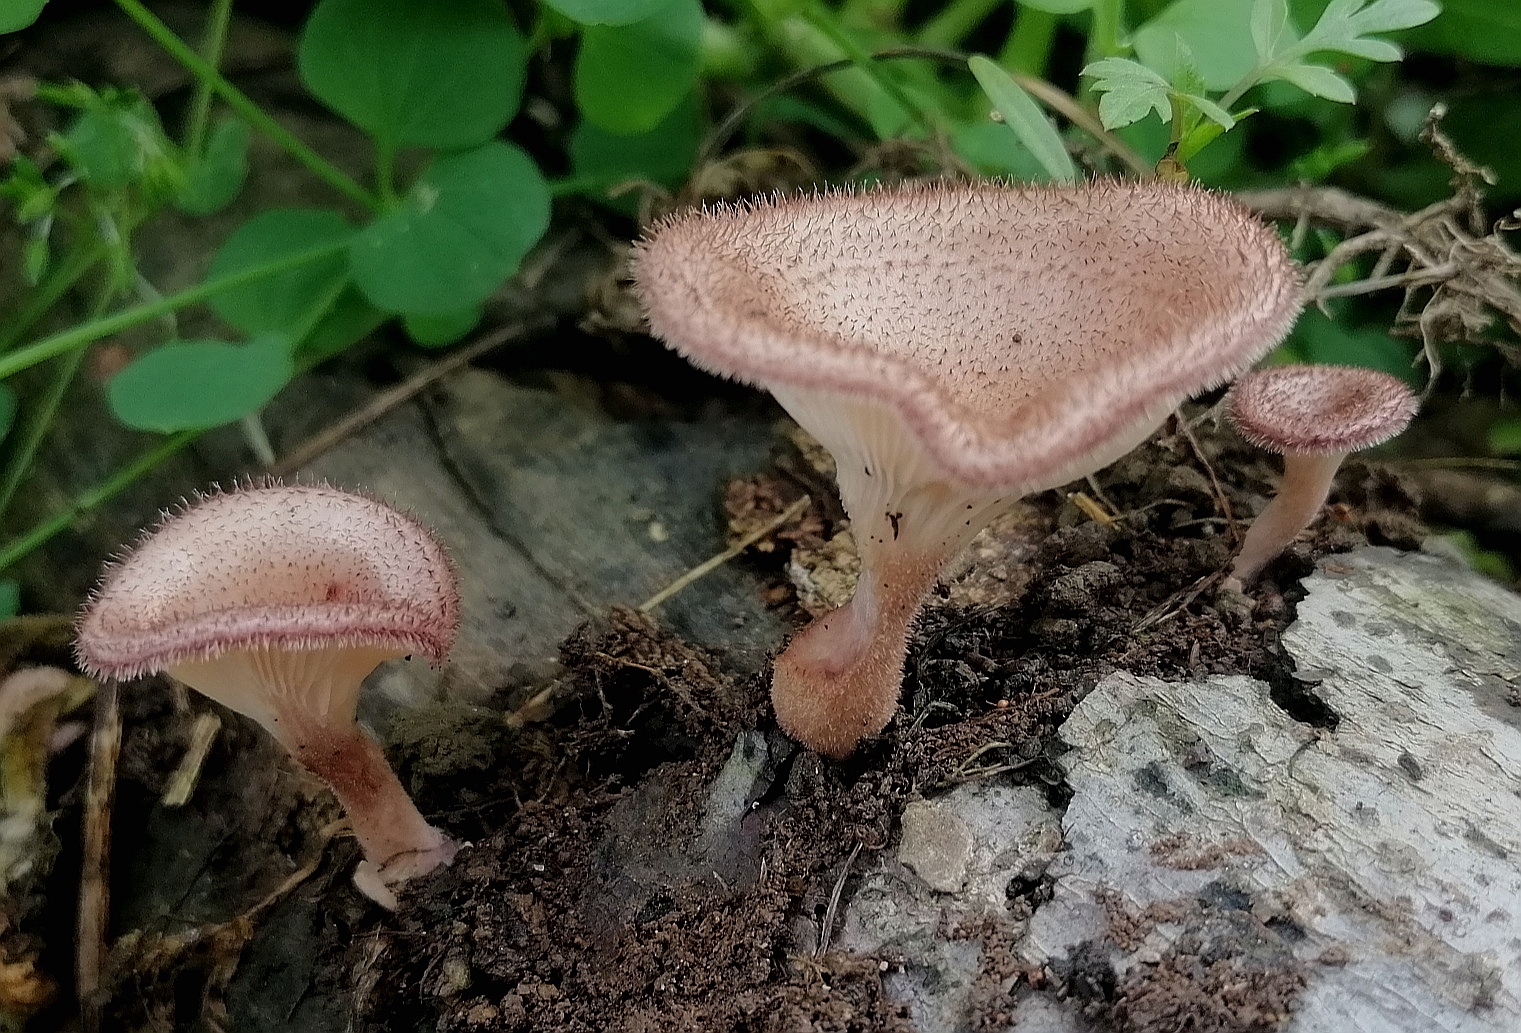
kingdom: Fungi
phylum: Basidiomycota
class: Agaricomycetes
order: Polyporales
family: Panaceae
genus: Panus
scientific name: Panus strigellus
